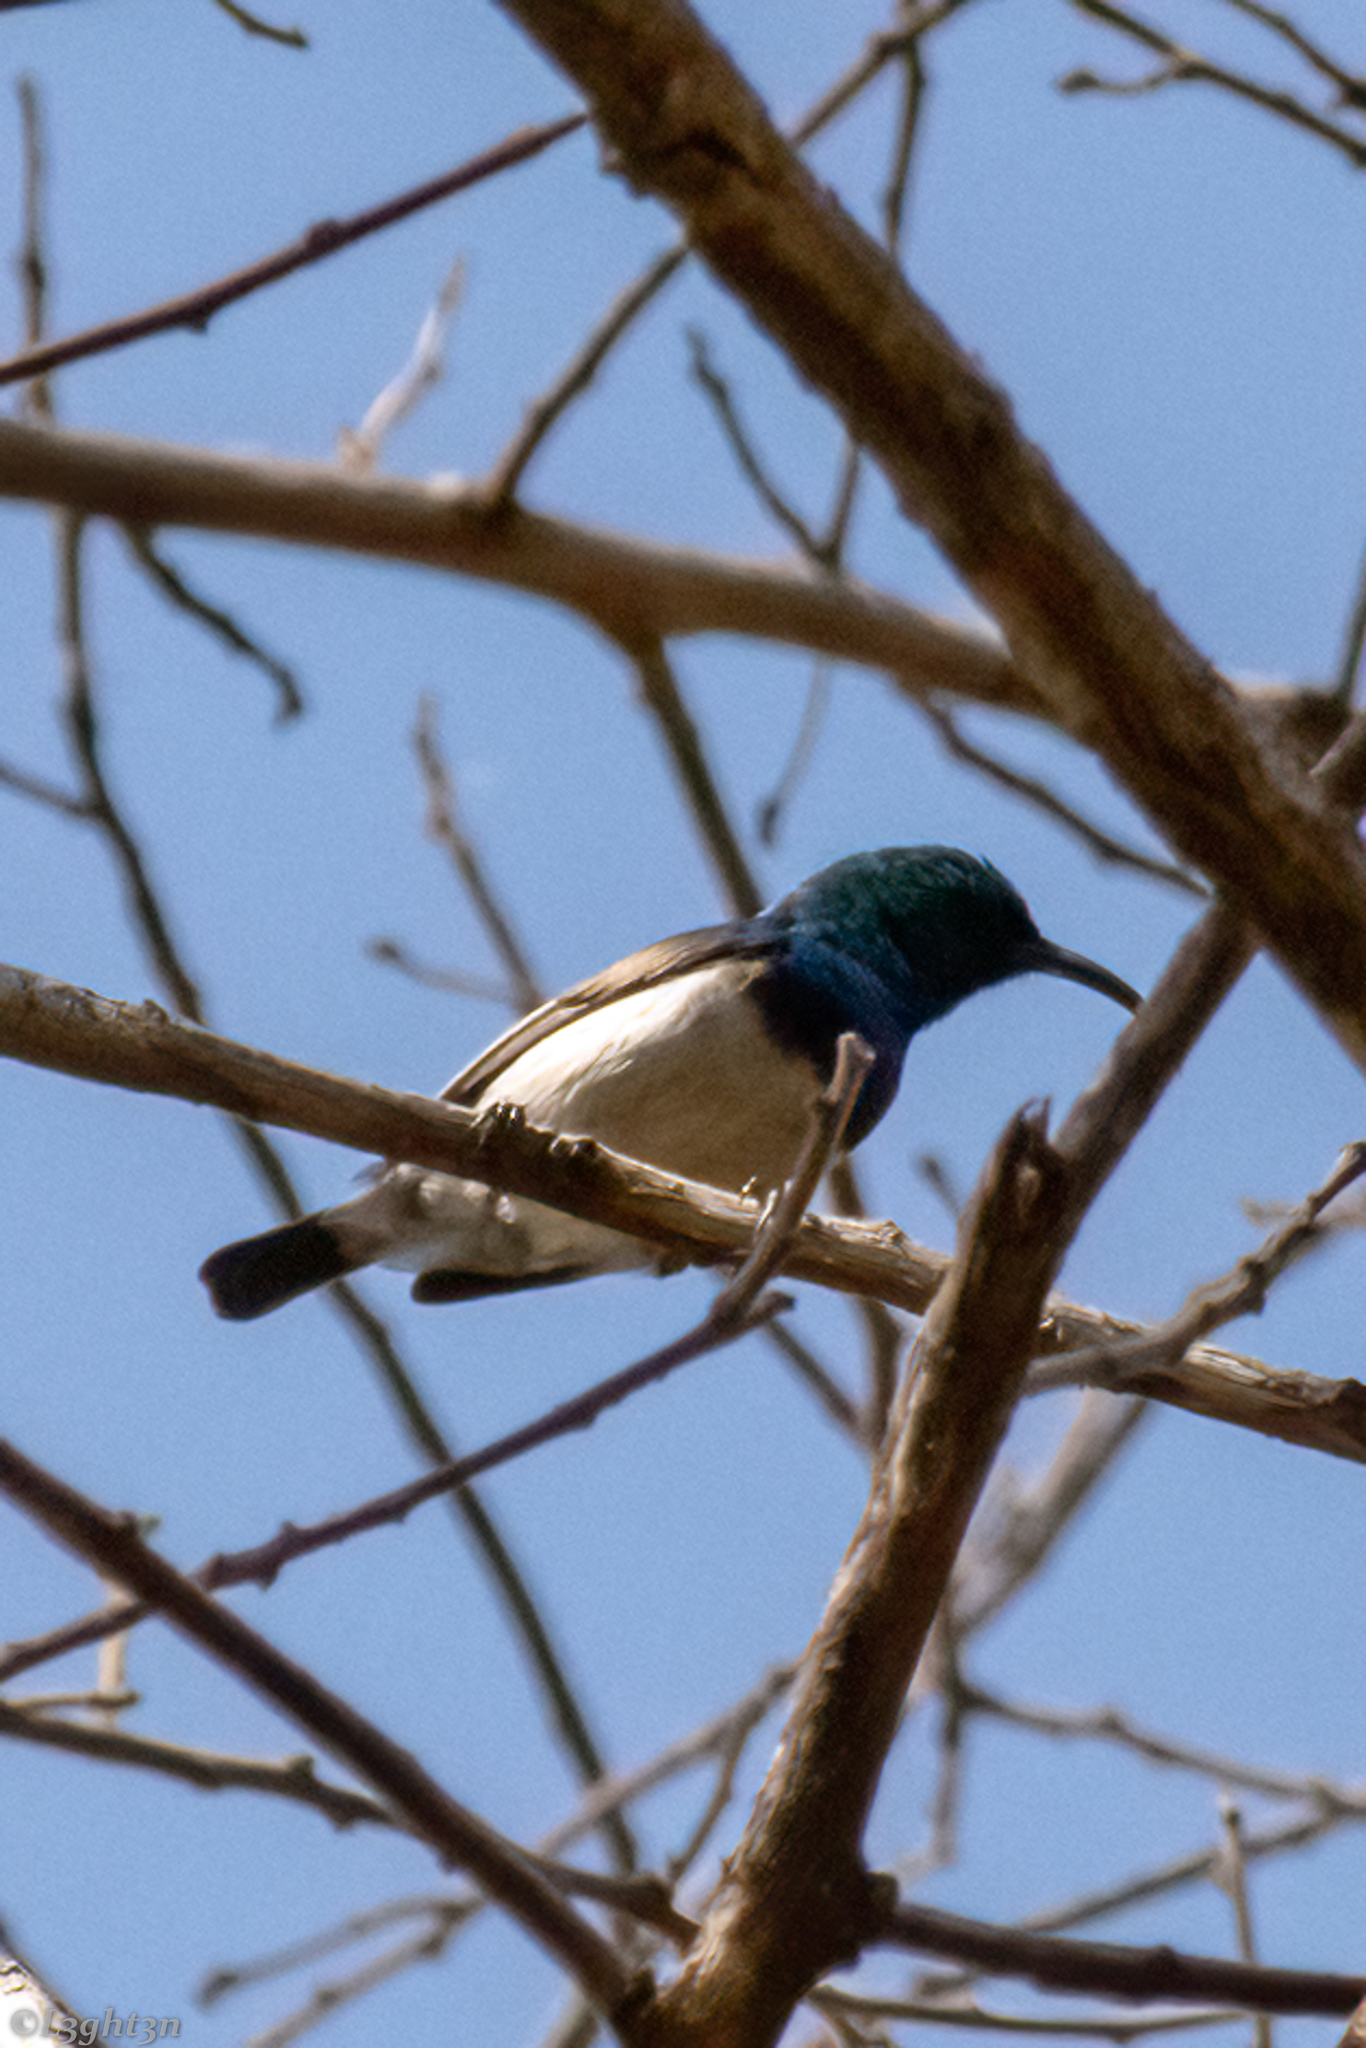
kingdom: Animalia
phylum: Chordata
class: Aves
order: Passeriformes
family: Nectariniidae
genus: Cinnyris
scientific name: Cinnyris talatala
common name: White-bellied sunbird
